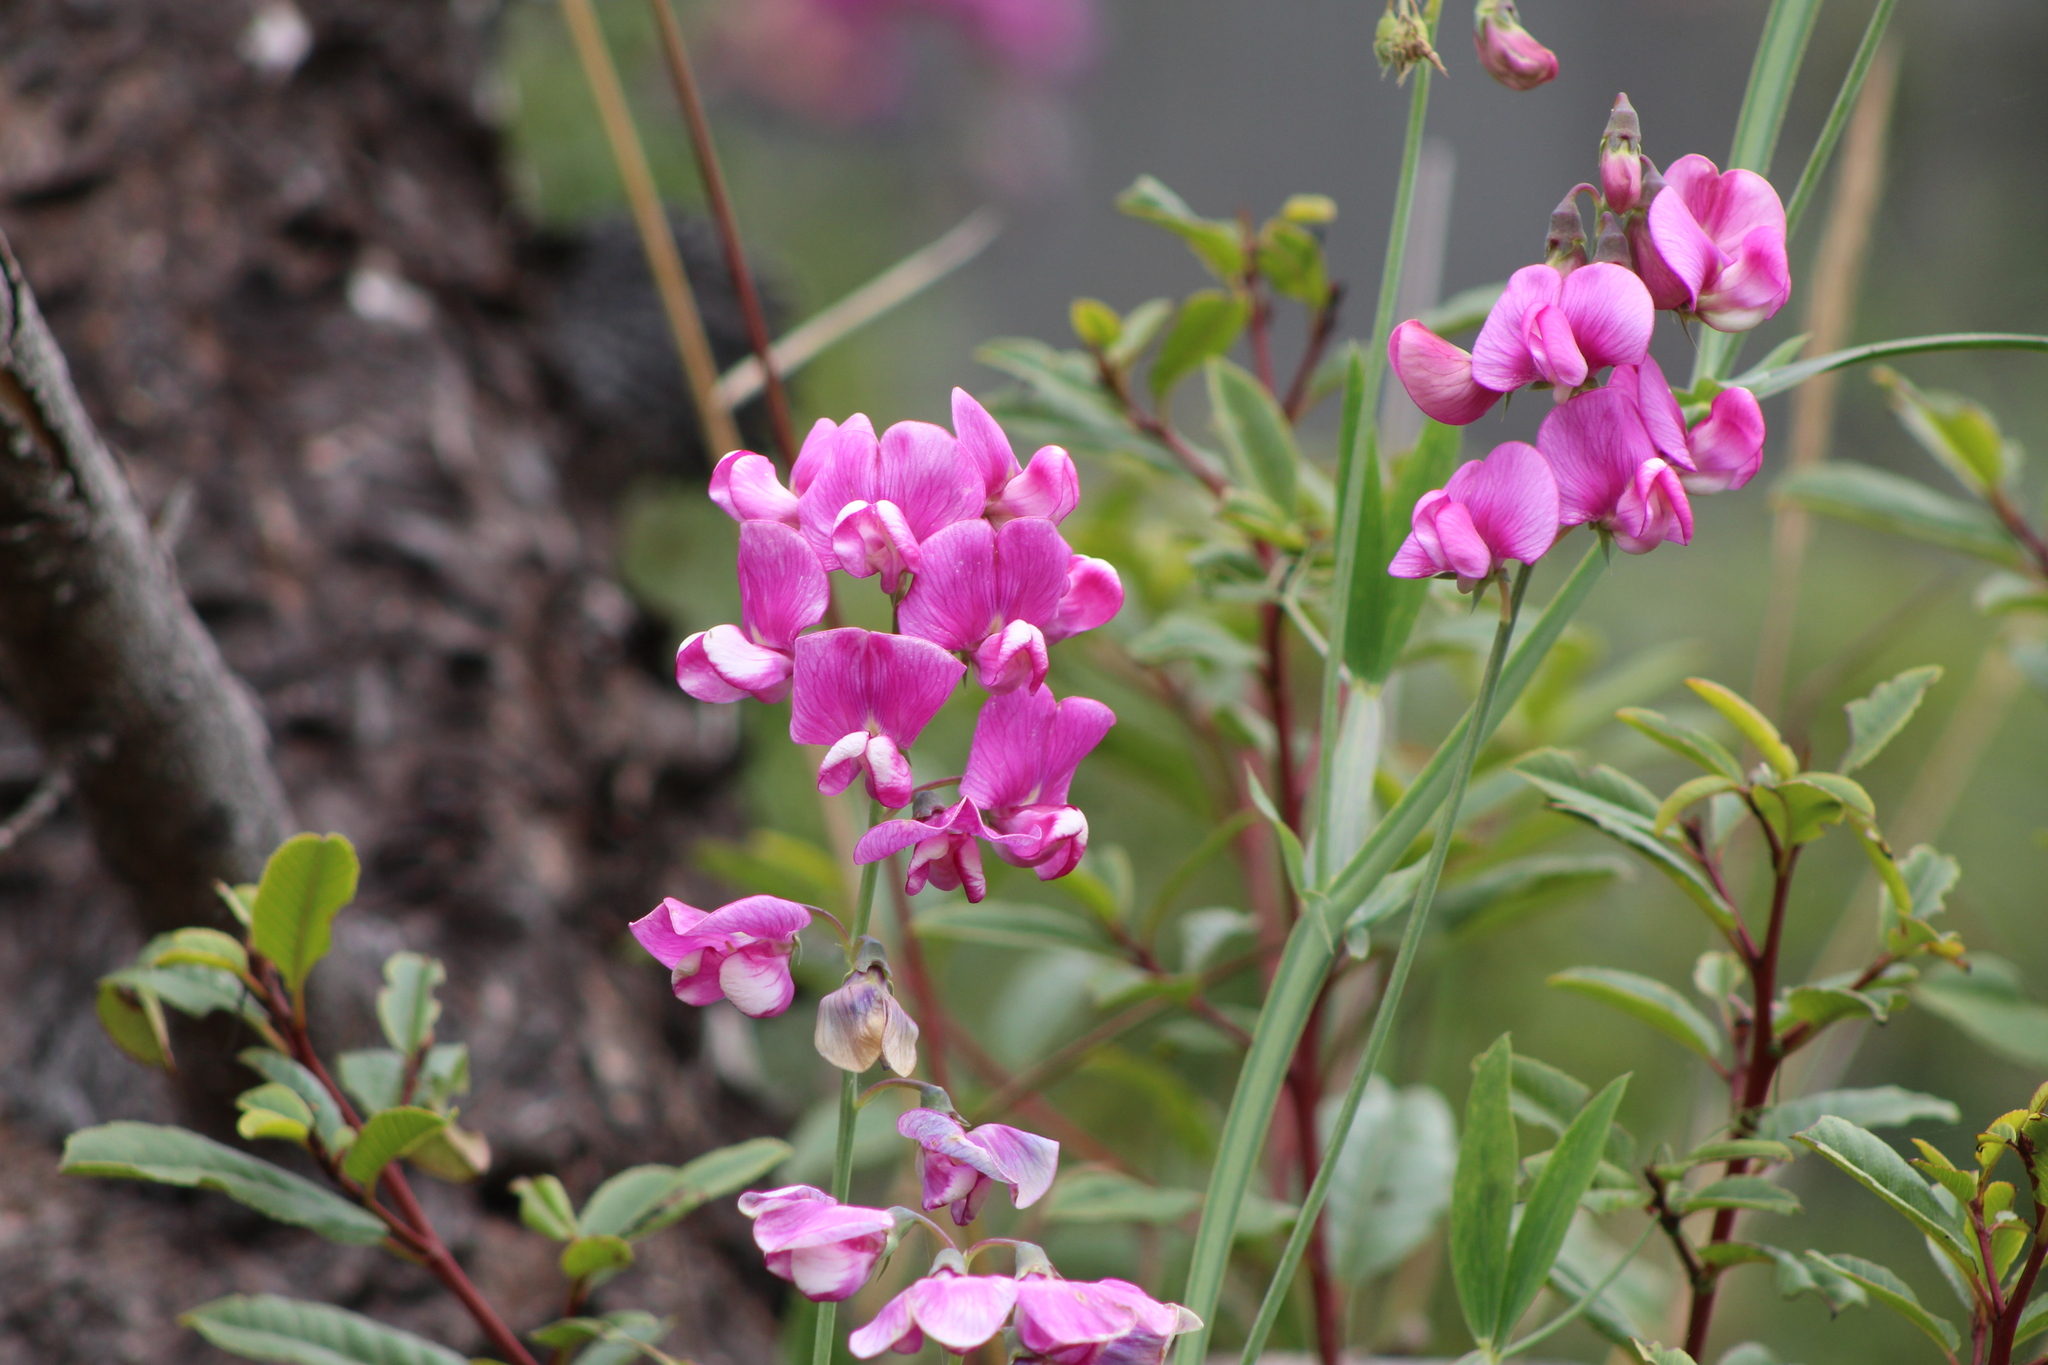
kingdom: Plantae
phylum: Tracheophyta
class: Magnoliopsida
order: Fabales
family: Fabaceae
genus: Lathyrus
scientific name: Lathyrus latifolius
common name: Perennial pea
